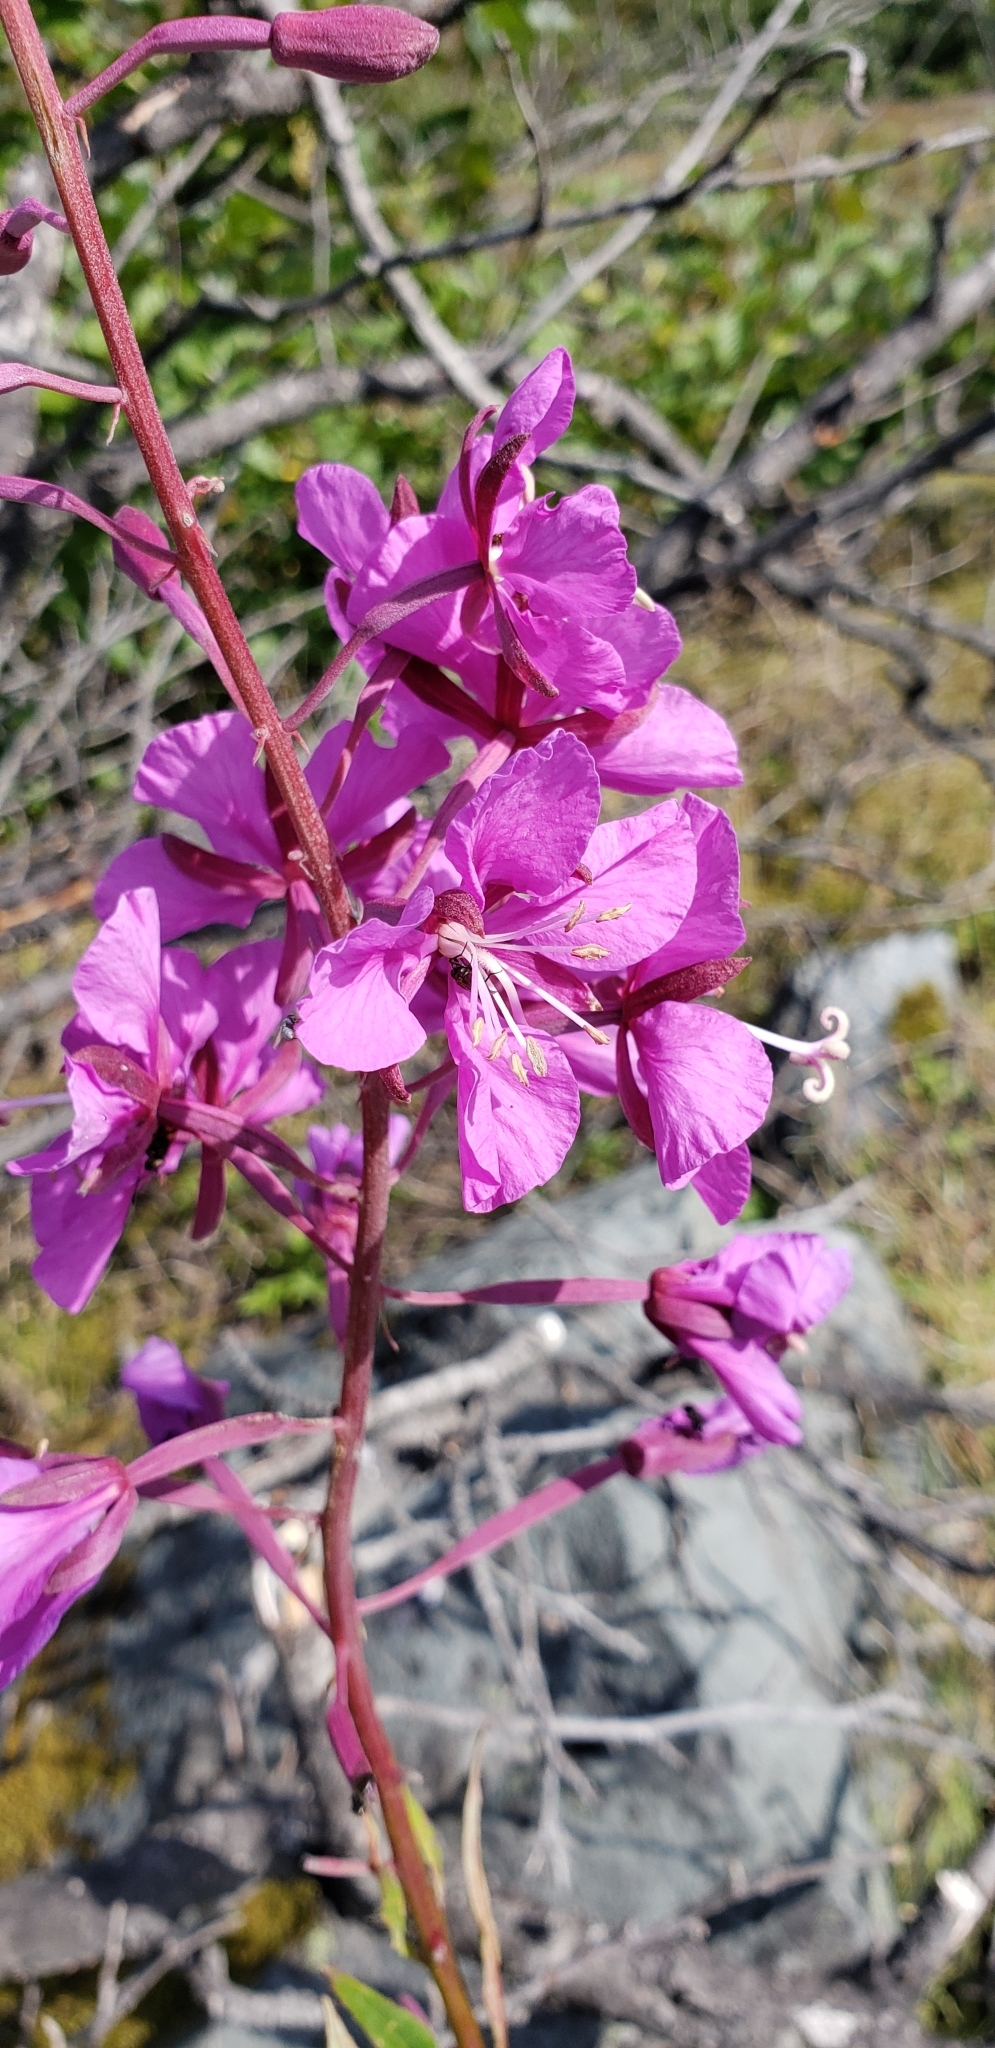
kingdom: Plantae
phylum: Tracheophyta
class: Magnoliopsida
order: Myrtales
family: Onagraceae
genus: Chamaenerion
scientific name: Chamaenerion angustifolium
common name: Fireweed
